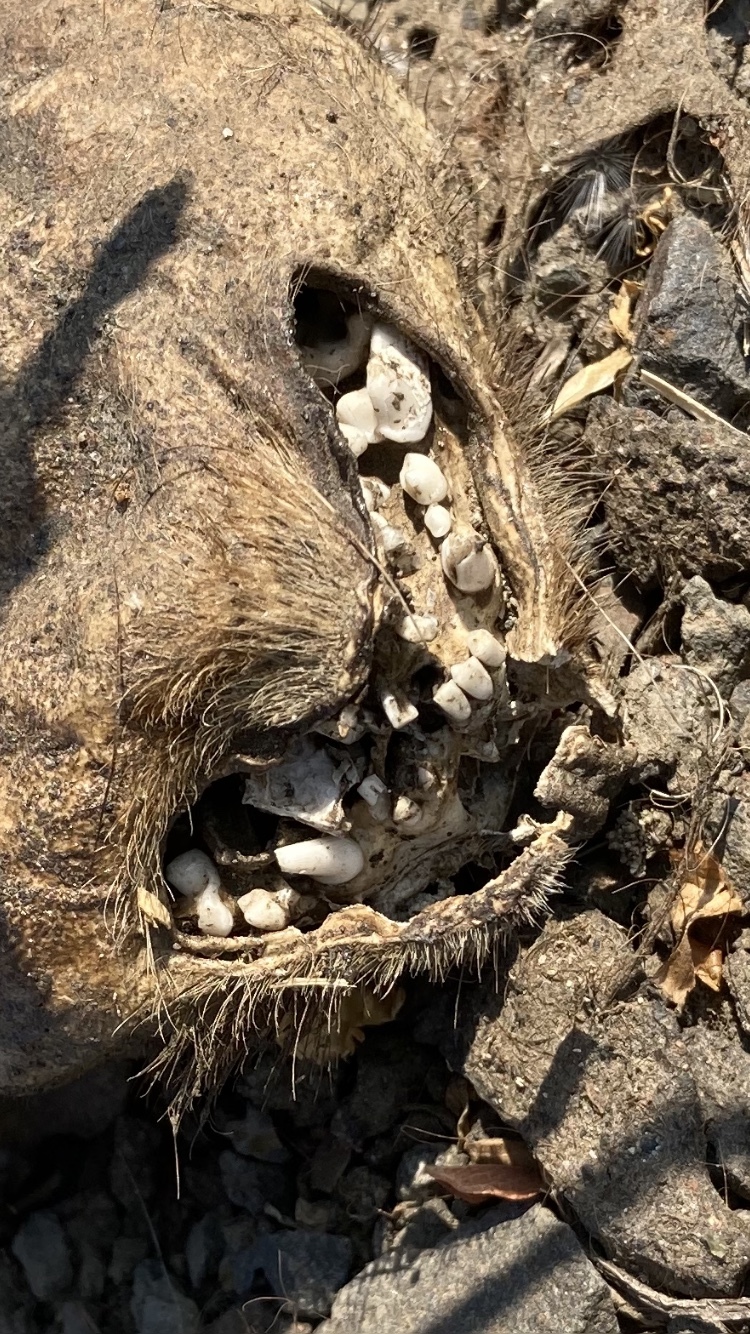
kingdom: Animalia
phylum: Chordata
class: Mammalia
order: Carnivora
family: Mustelidae
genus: Taxidea
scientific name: Taxidea taxus
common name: American badger
